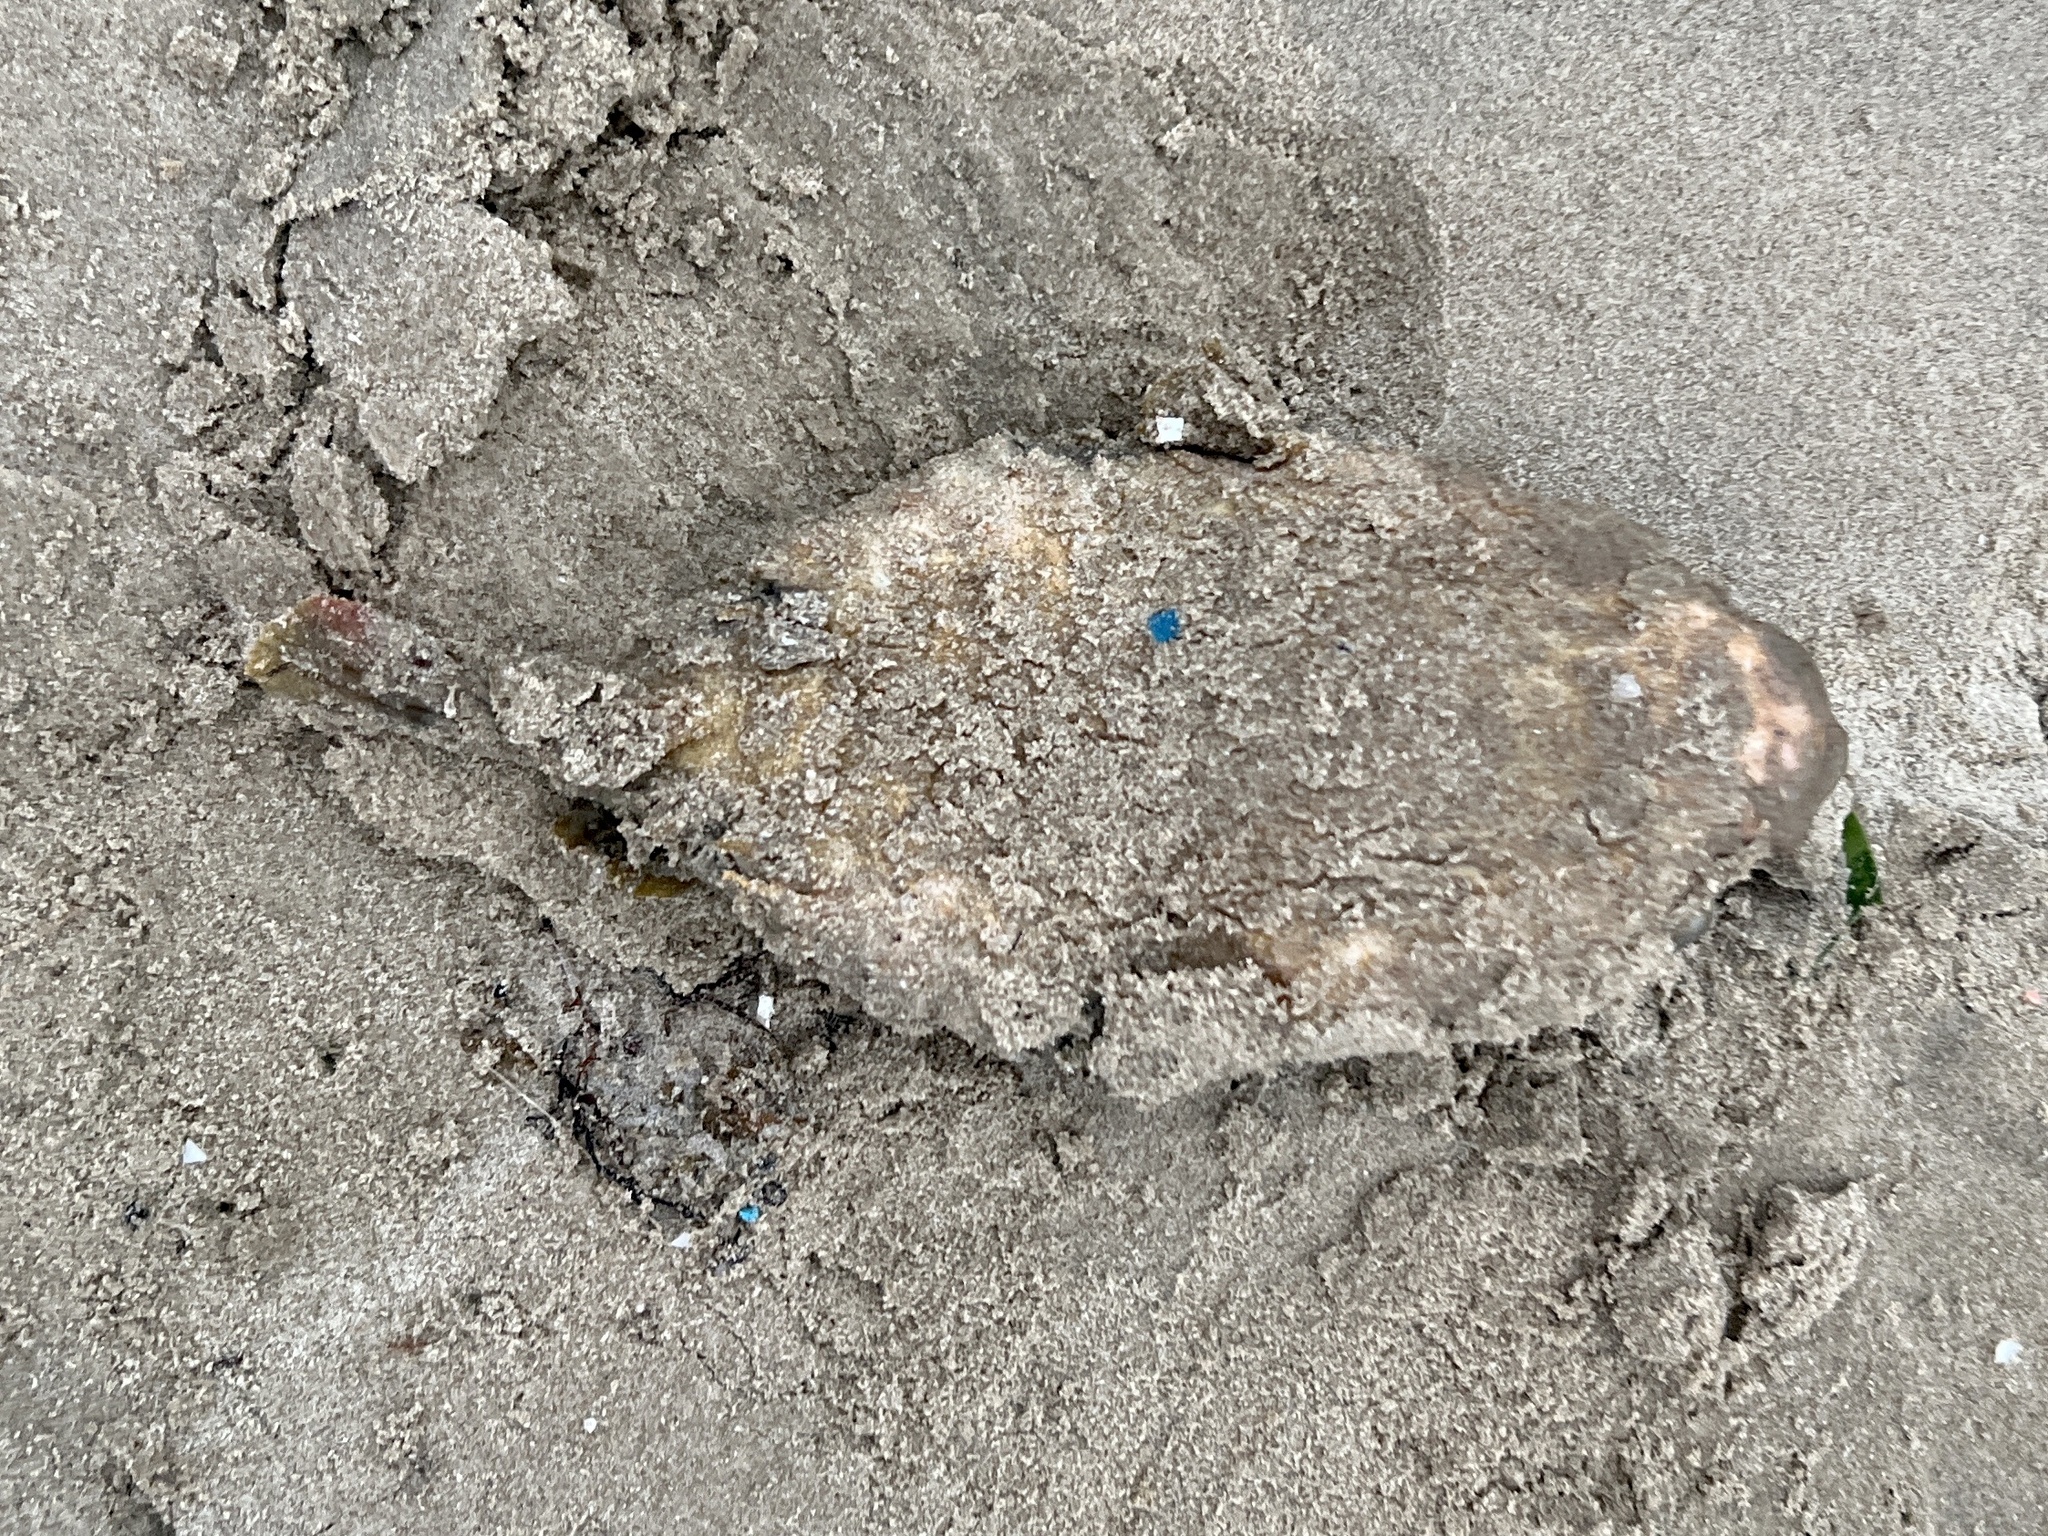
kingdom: Animalia
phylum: Chordata
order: Tetraodontiformes
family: Diodontidae
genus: Chilomycterus
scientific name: Chilomycterus schoepfii
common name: Striped burrfish
